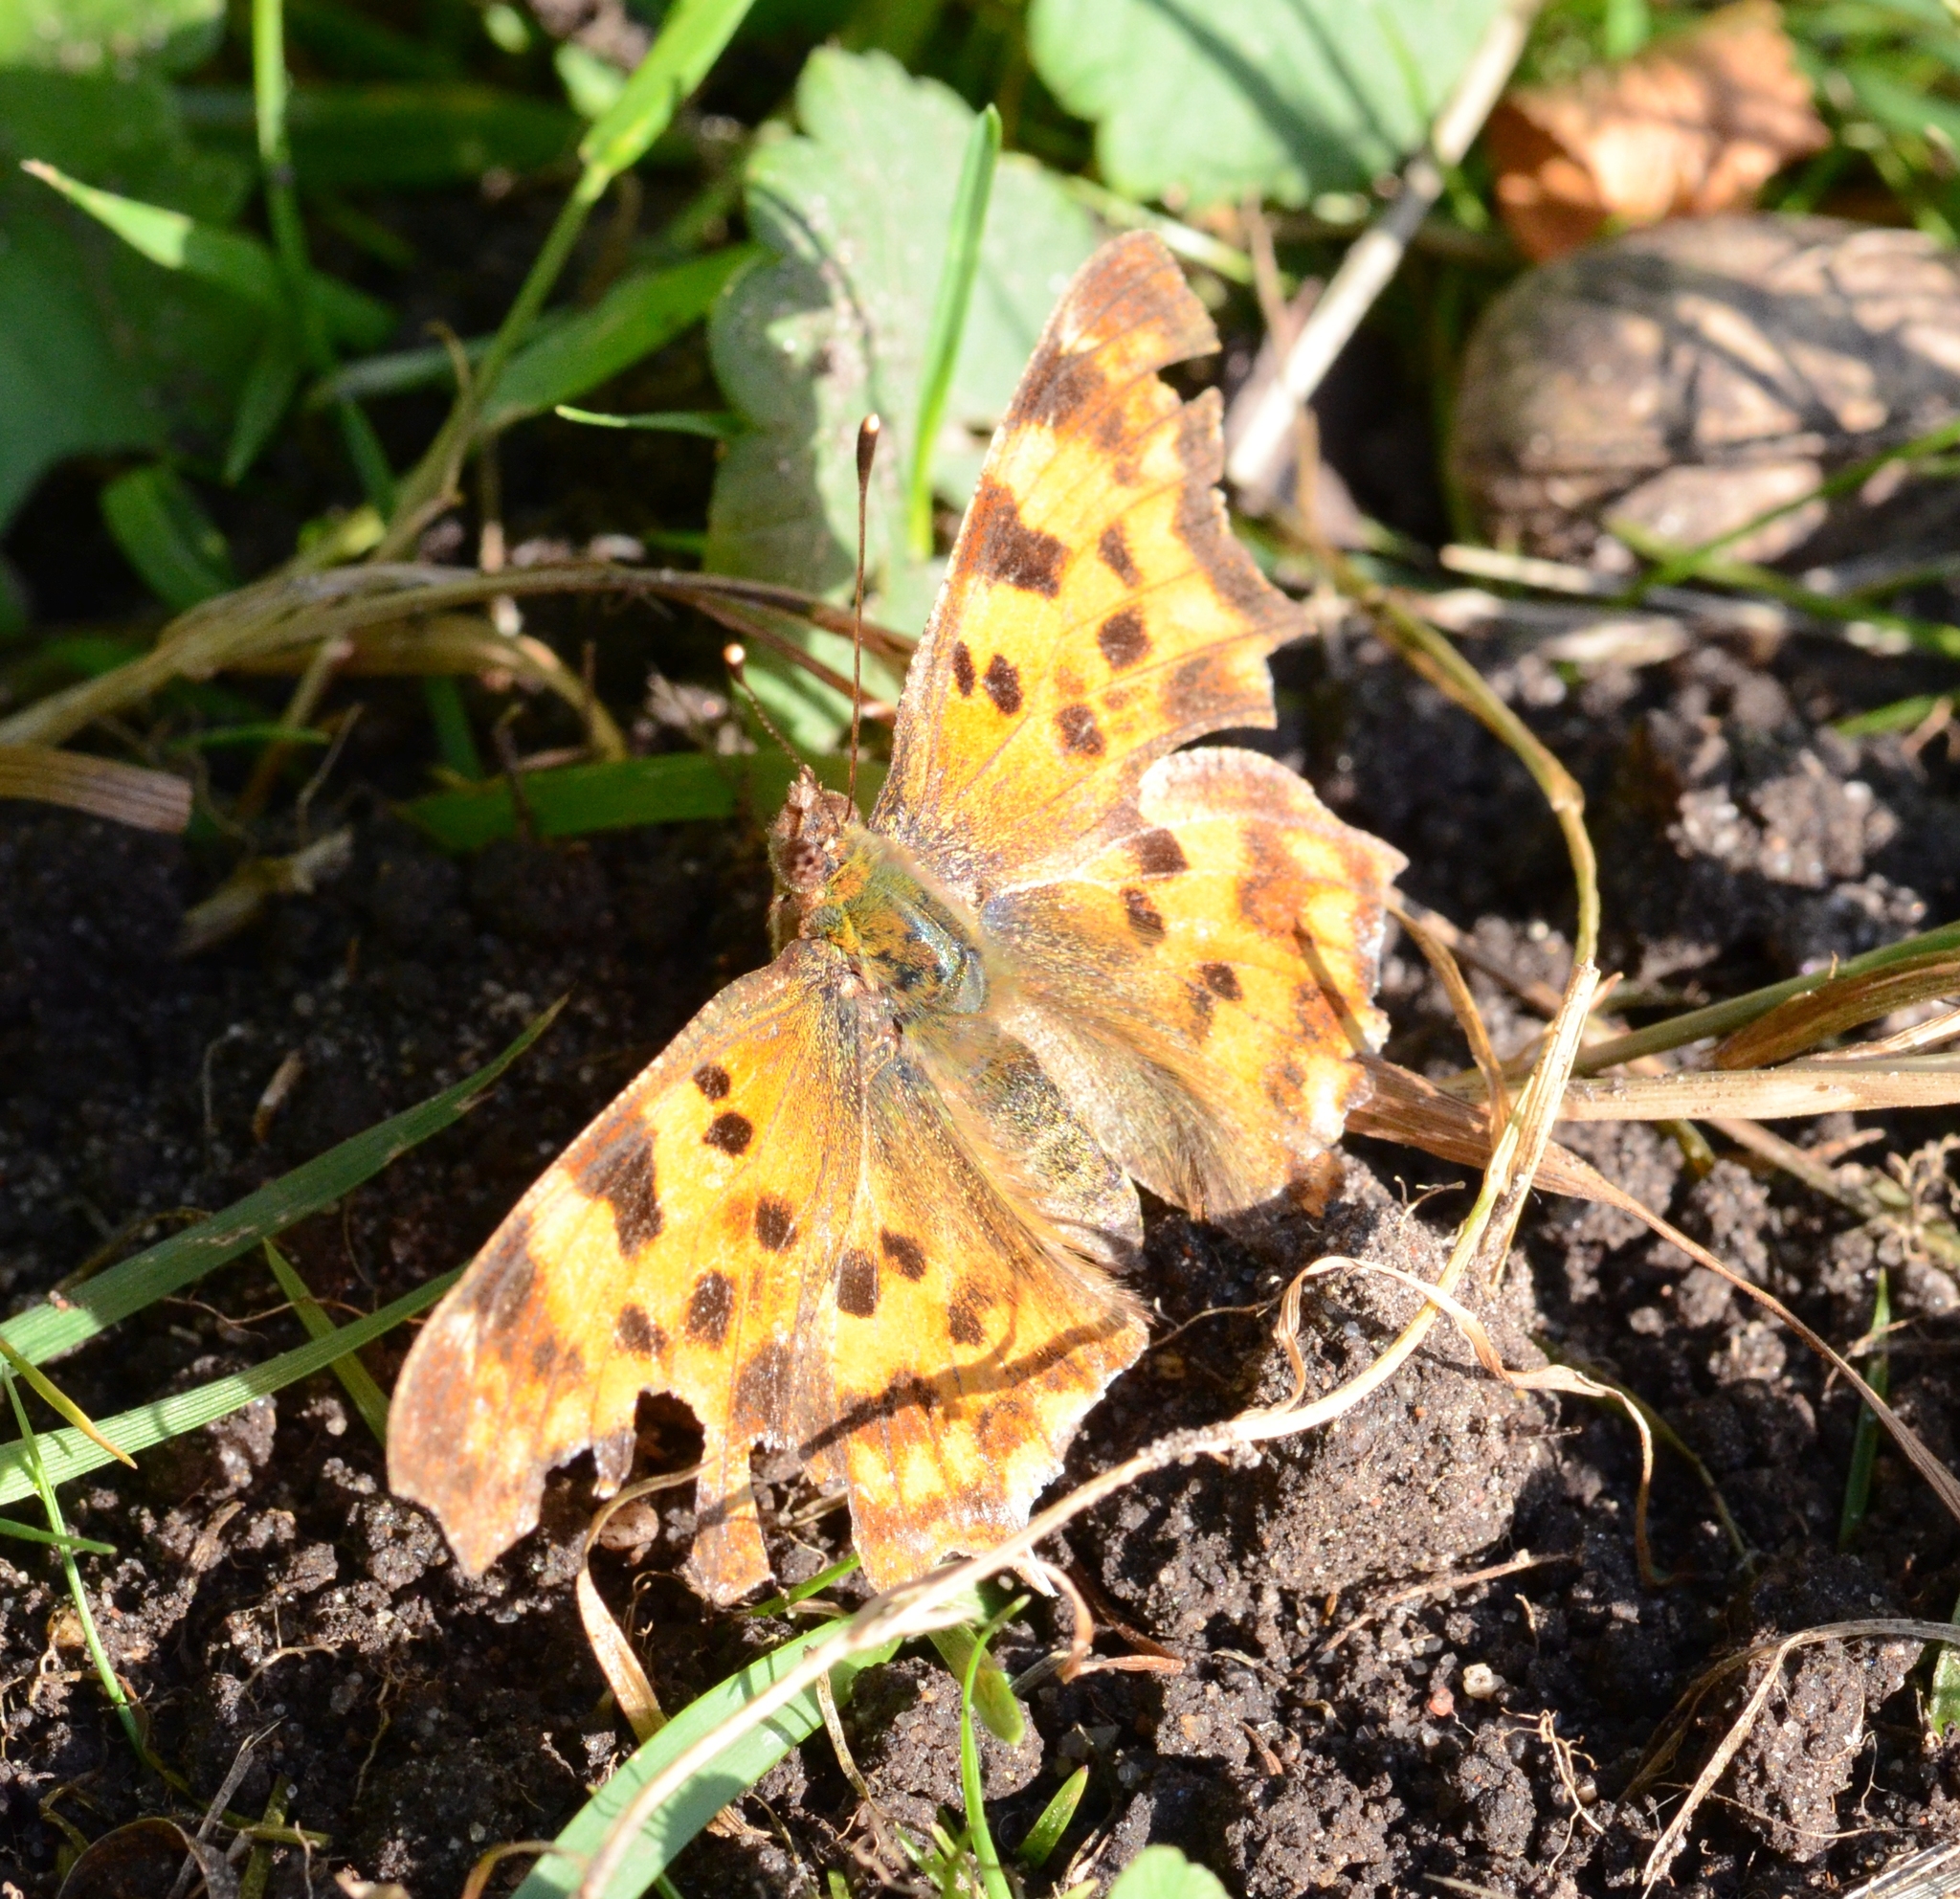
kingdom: Animalia
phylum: Arthropoda
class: Insecta
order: Lepidoptera
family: Nymphalidae
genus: Polygonia
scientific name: Polygonia c-album
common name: Comma
